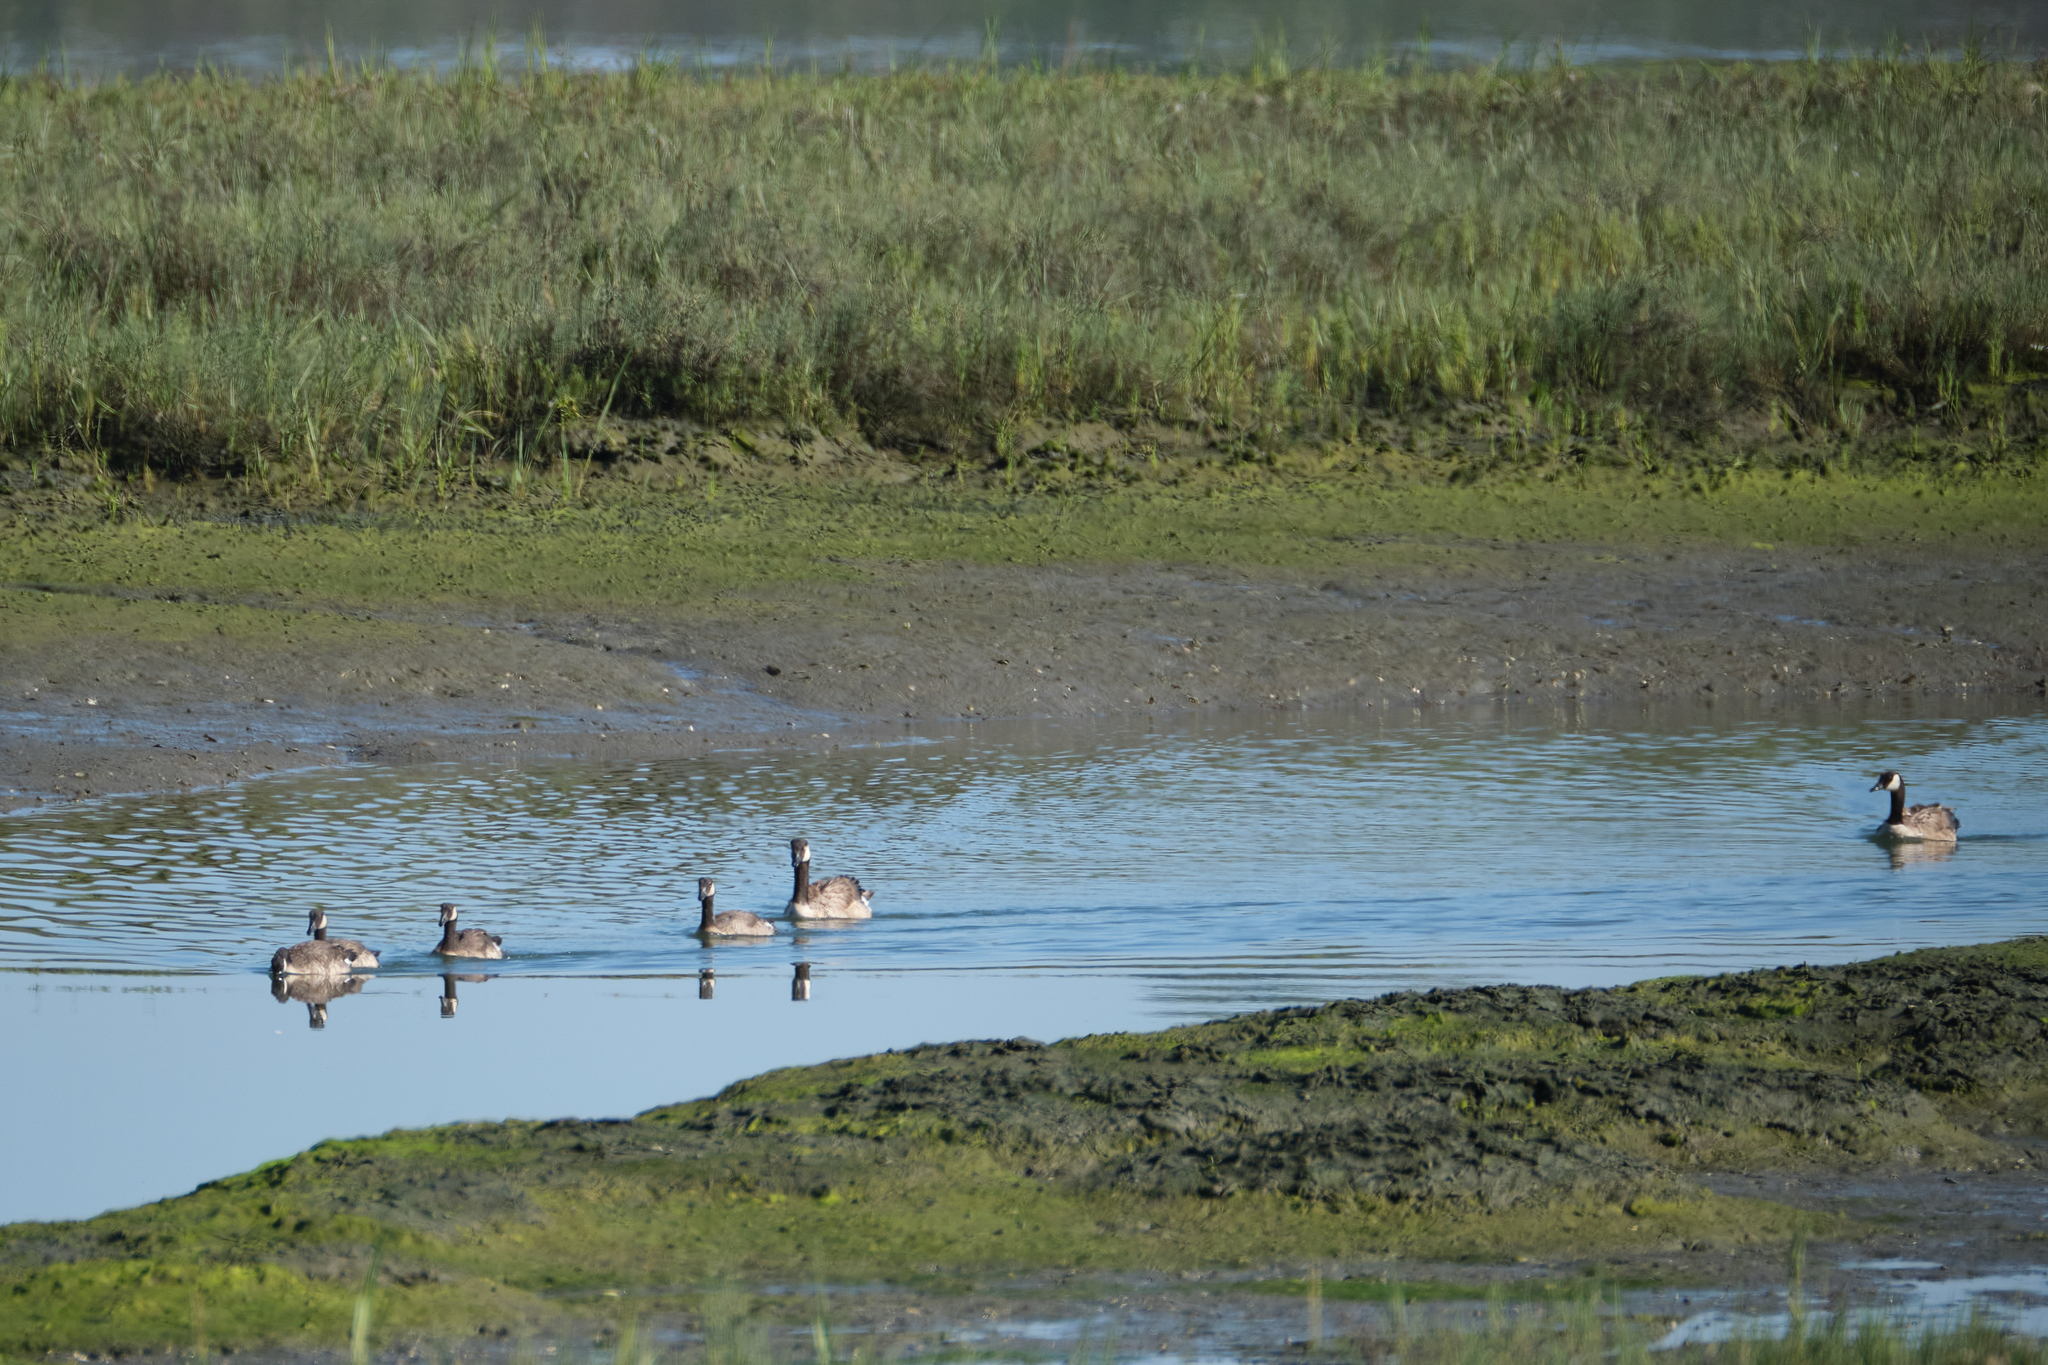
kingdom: Animalia
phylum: Chordata
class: Aves
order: Anseriformes
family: Anatidae
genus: Branta
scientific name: Branta canadensis
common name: Canada goose
